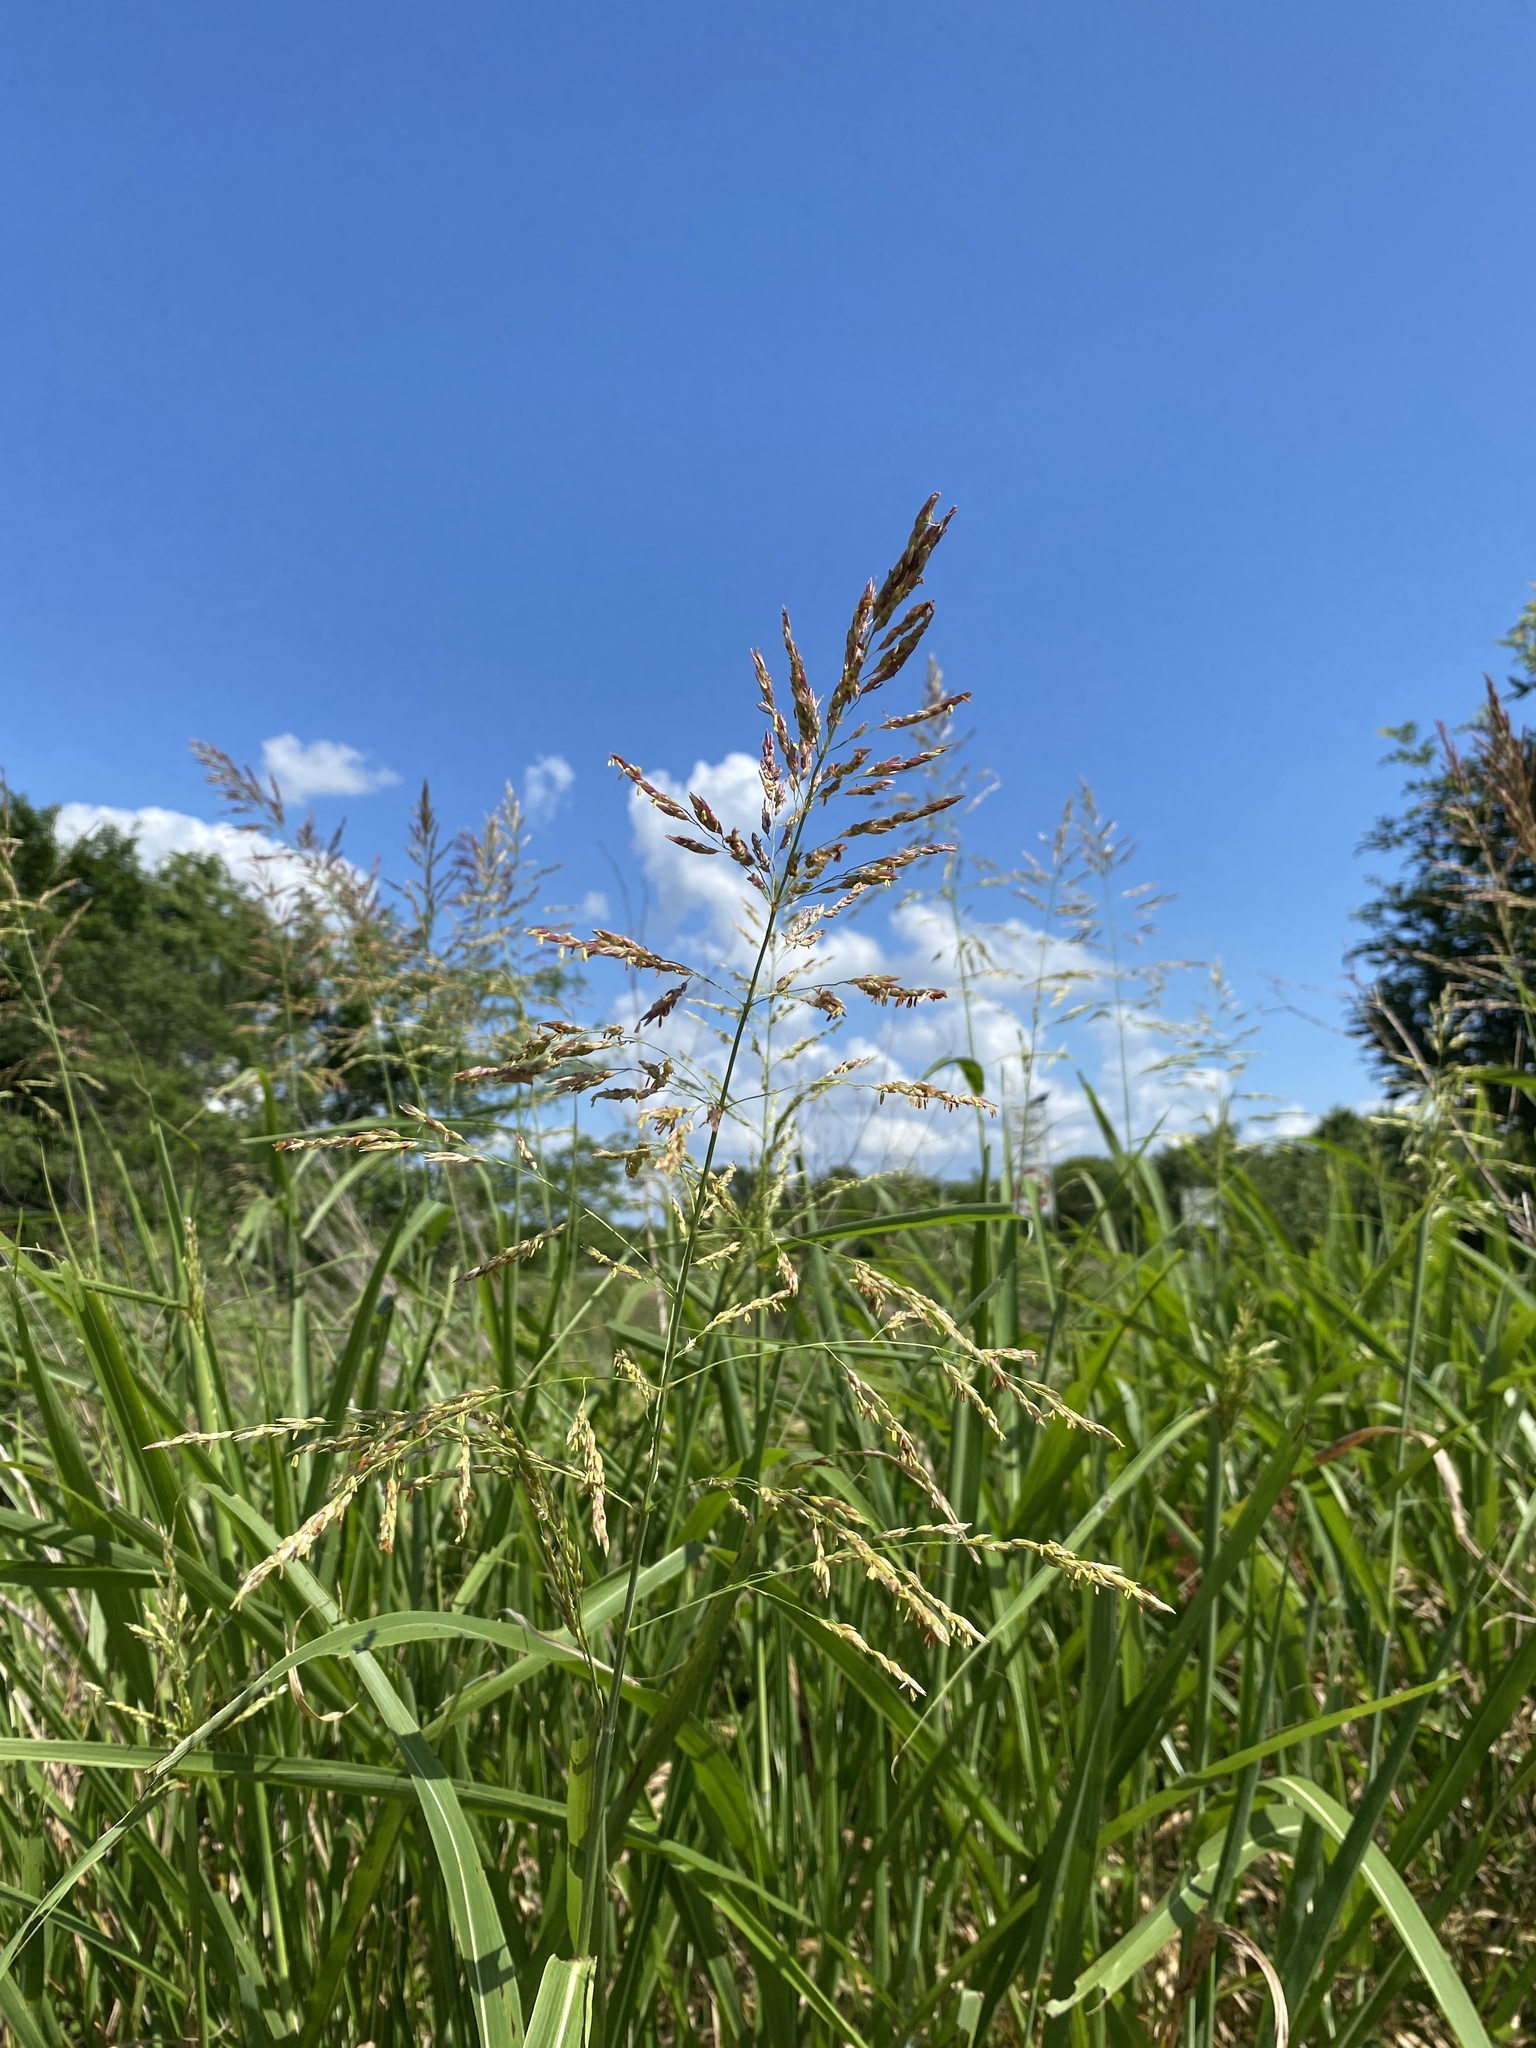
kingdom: Plantae
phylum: Tracheophyta
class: Liliopsida
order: Poales
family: Poaceae
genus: Sorghum
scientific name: Sorghum halepense
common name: Johnson-grass
